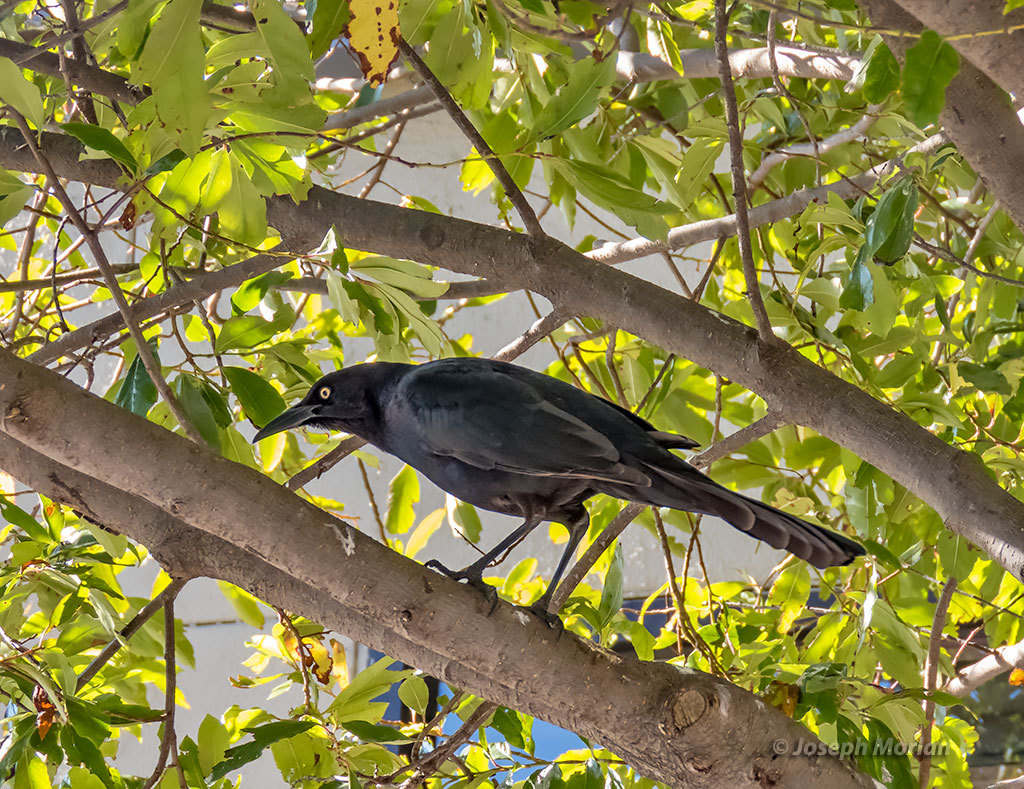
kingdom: Animalia
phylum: Chordata
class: Aves
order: Passeriformes
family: Icteridae
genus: Quiscalus
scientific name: Quiscalus mexicanus
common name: Great-tailed grackle
